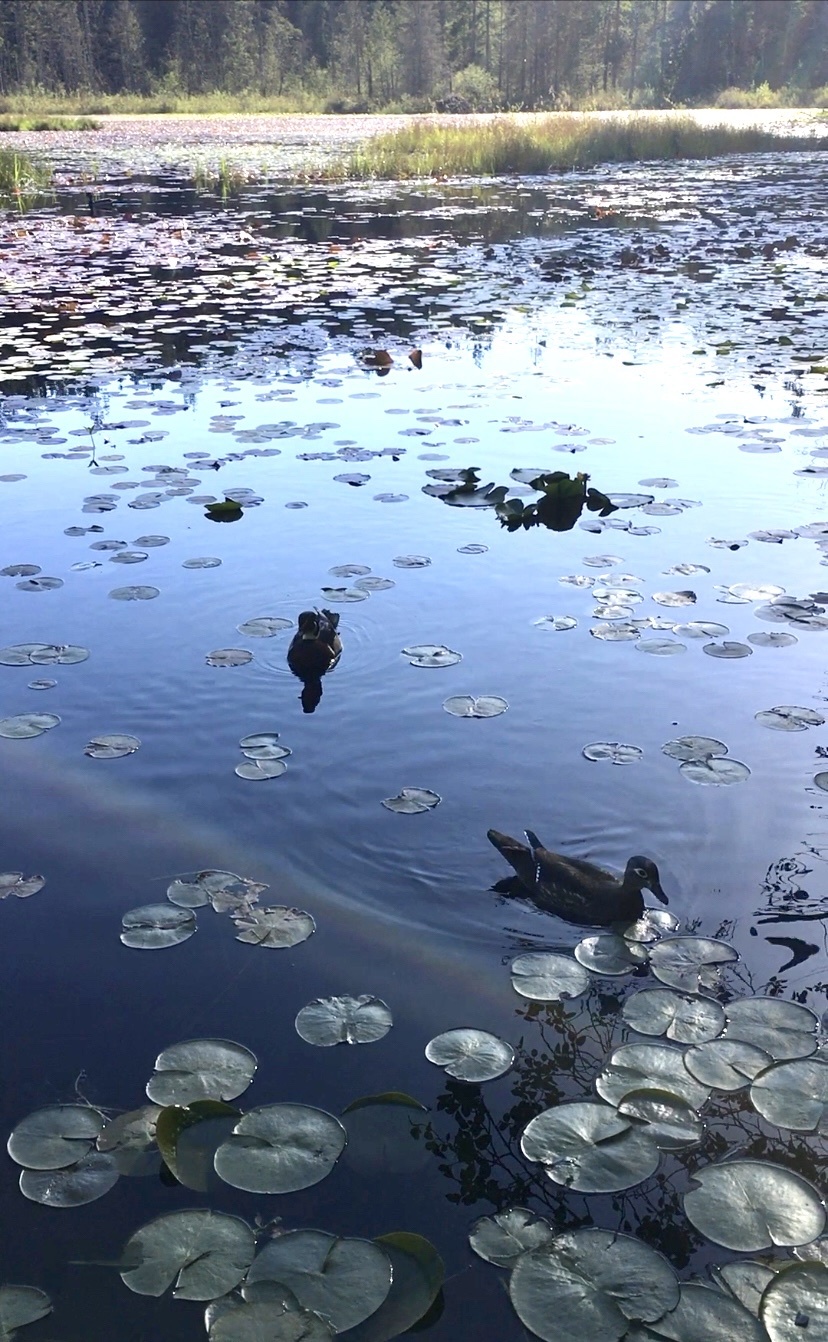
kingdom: Animalia
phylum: Chordata
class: Aves
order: Anseriformes
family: Anatidae
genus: Aix
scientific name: Aix sponsa
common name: Wood duck
